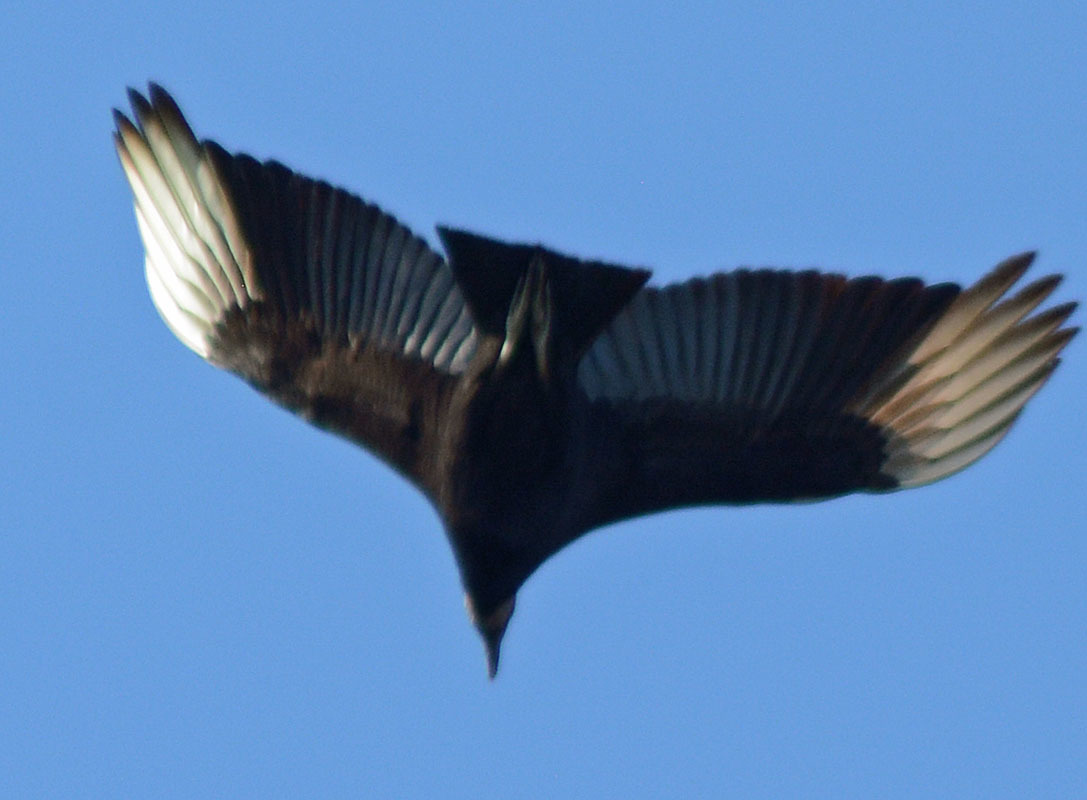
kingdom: Animalia
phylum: Chordata
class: Aves
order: Accipitriformes
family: Cathartidae
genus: Coragyps
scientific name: Coragyps atratus
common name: Black vulture
